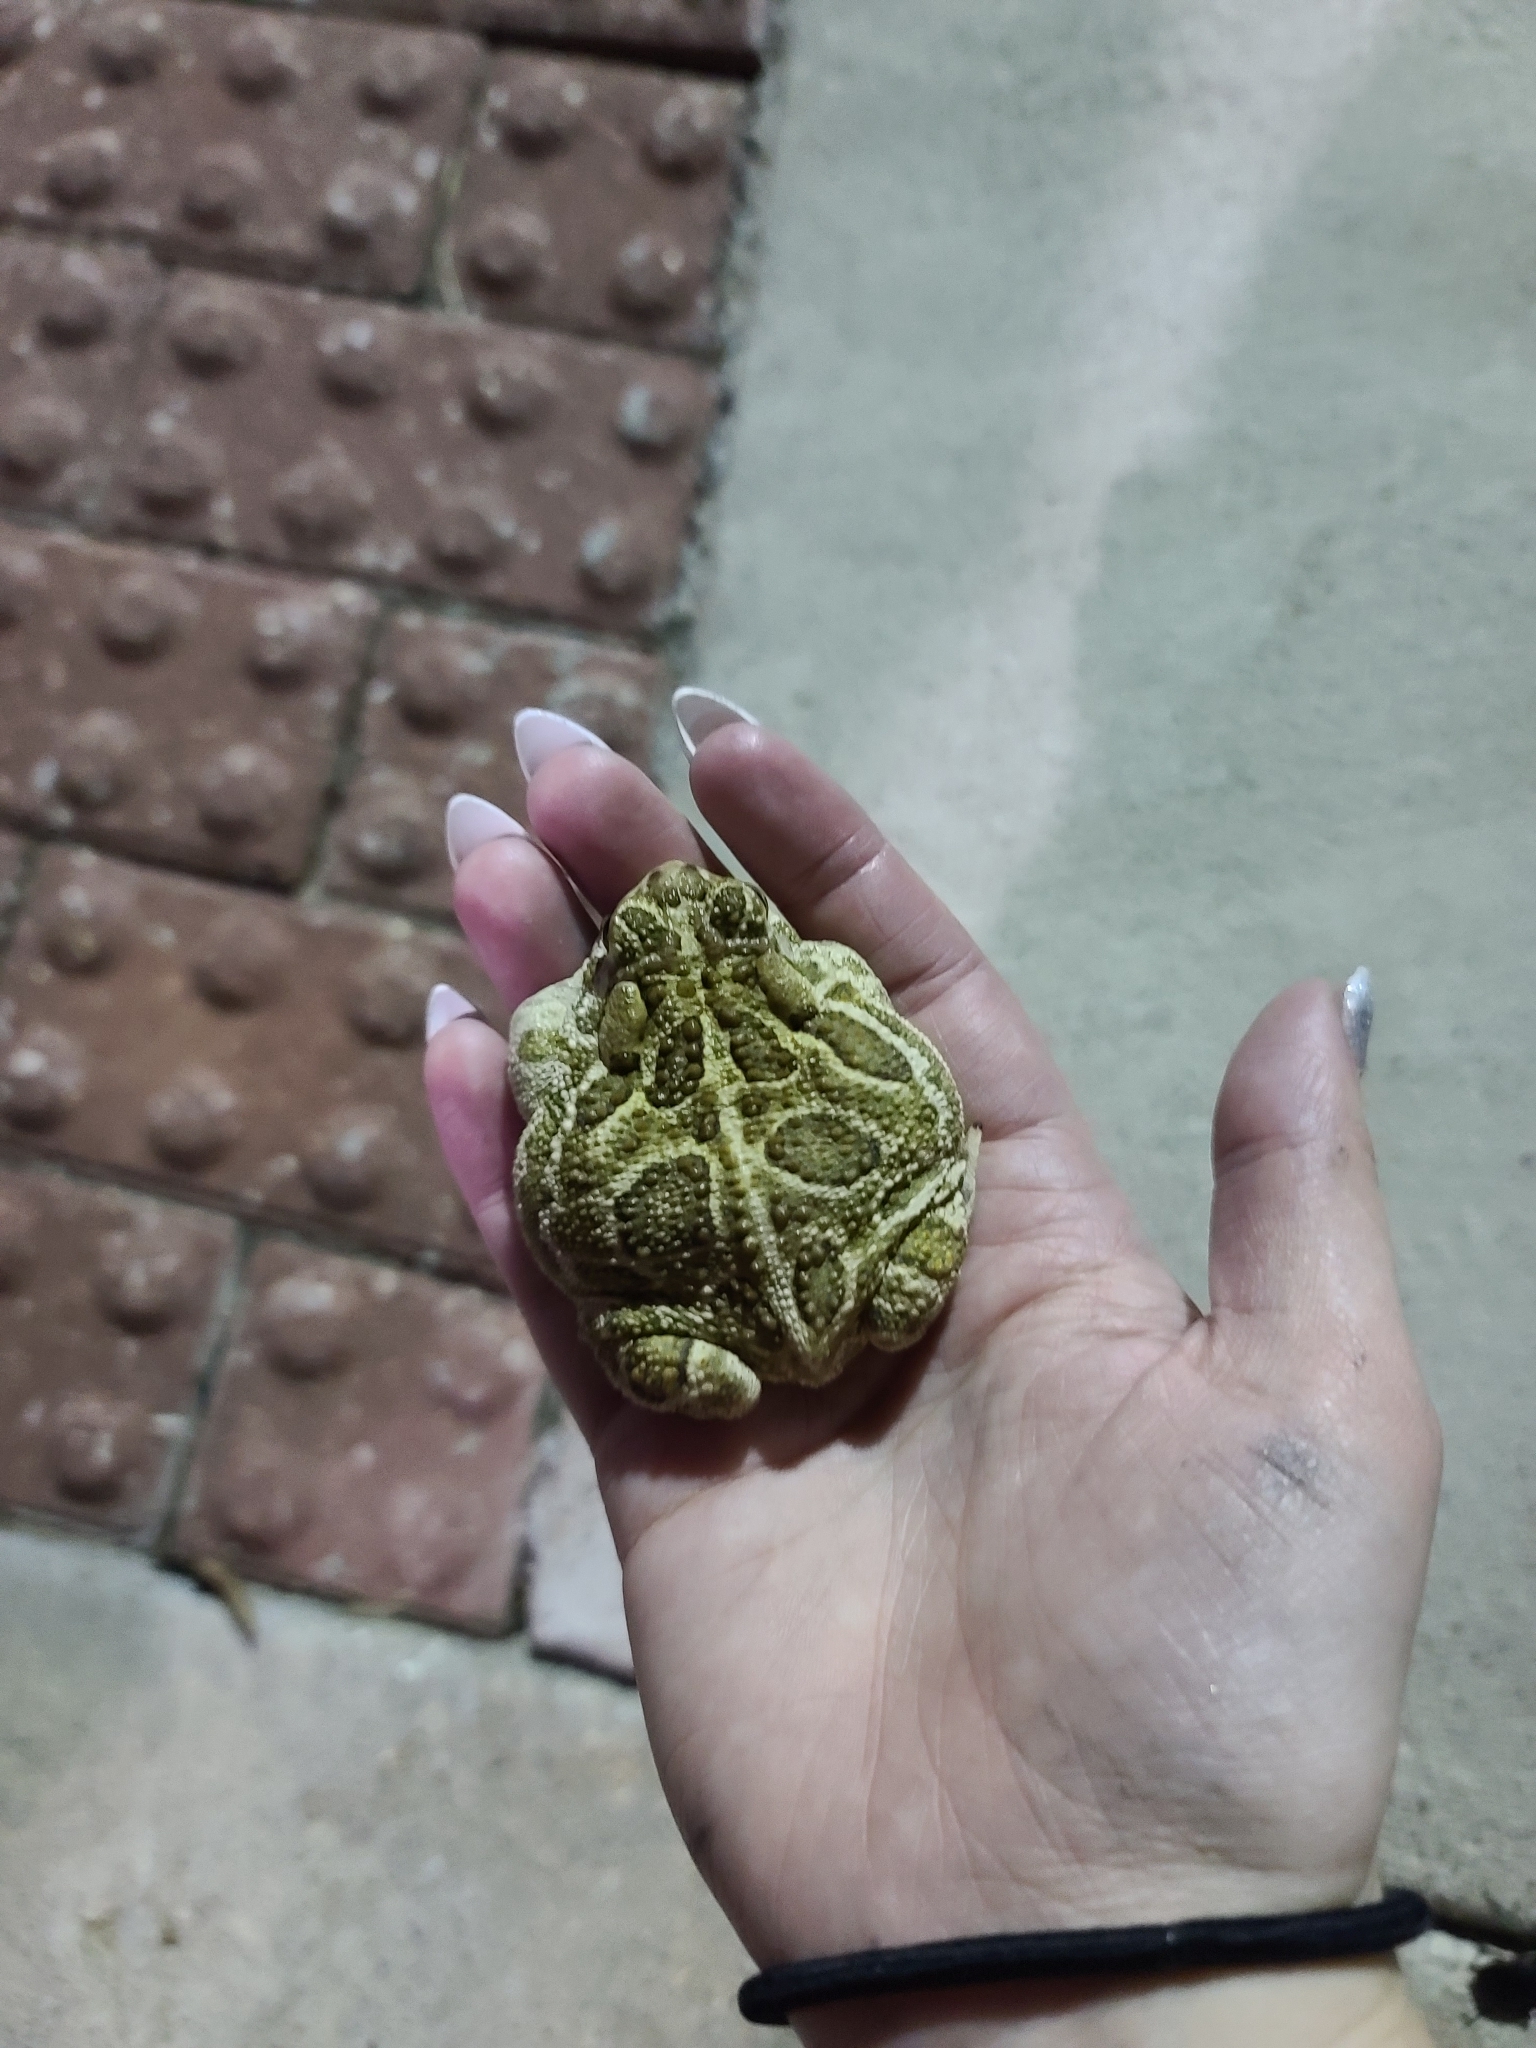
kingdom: Animalia
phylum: Chordata
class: Amphibia
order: Anura
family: Bufonidae
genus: Anaxyrus
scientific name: Anaxyrus cognatus
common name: Great plains toad
